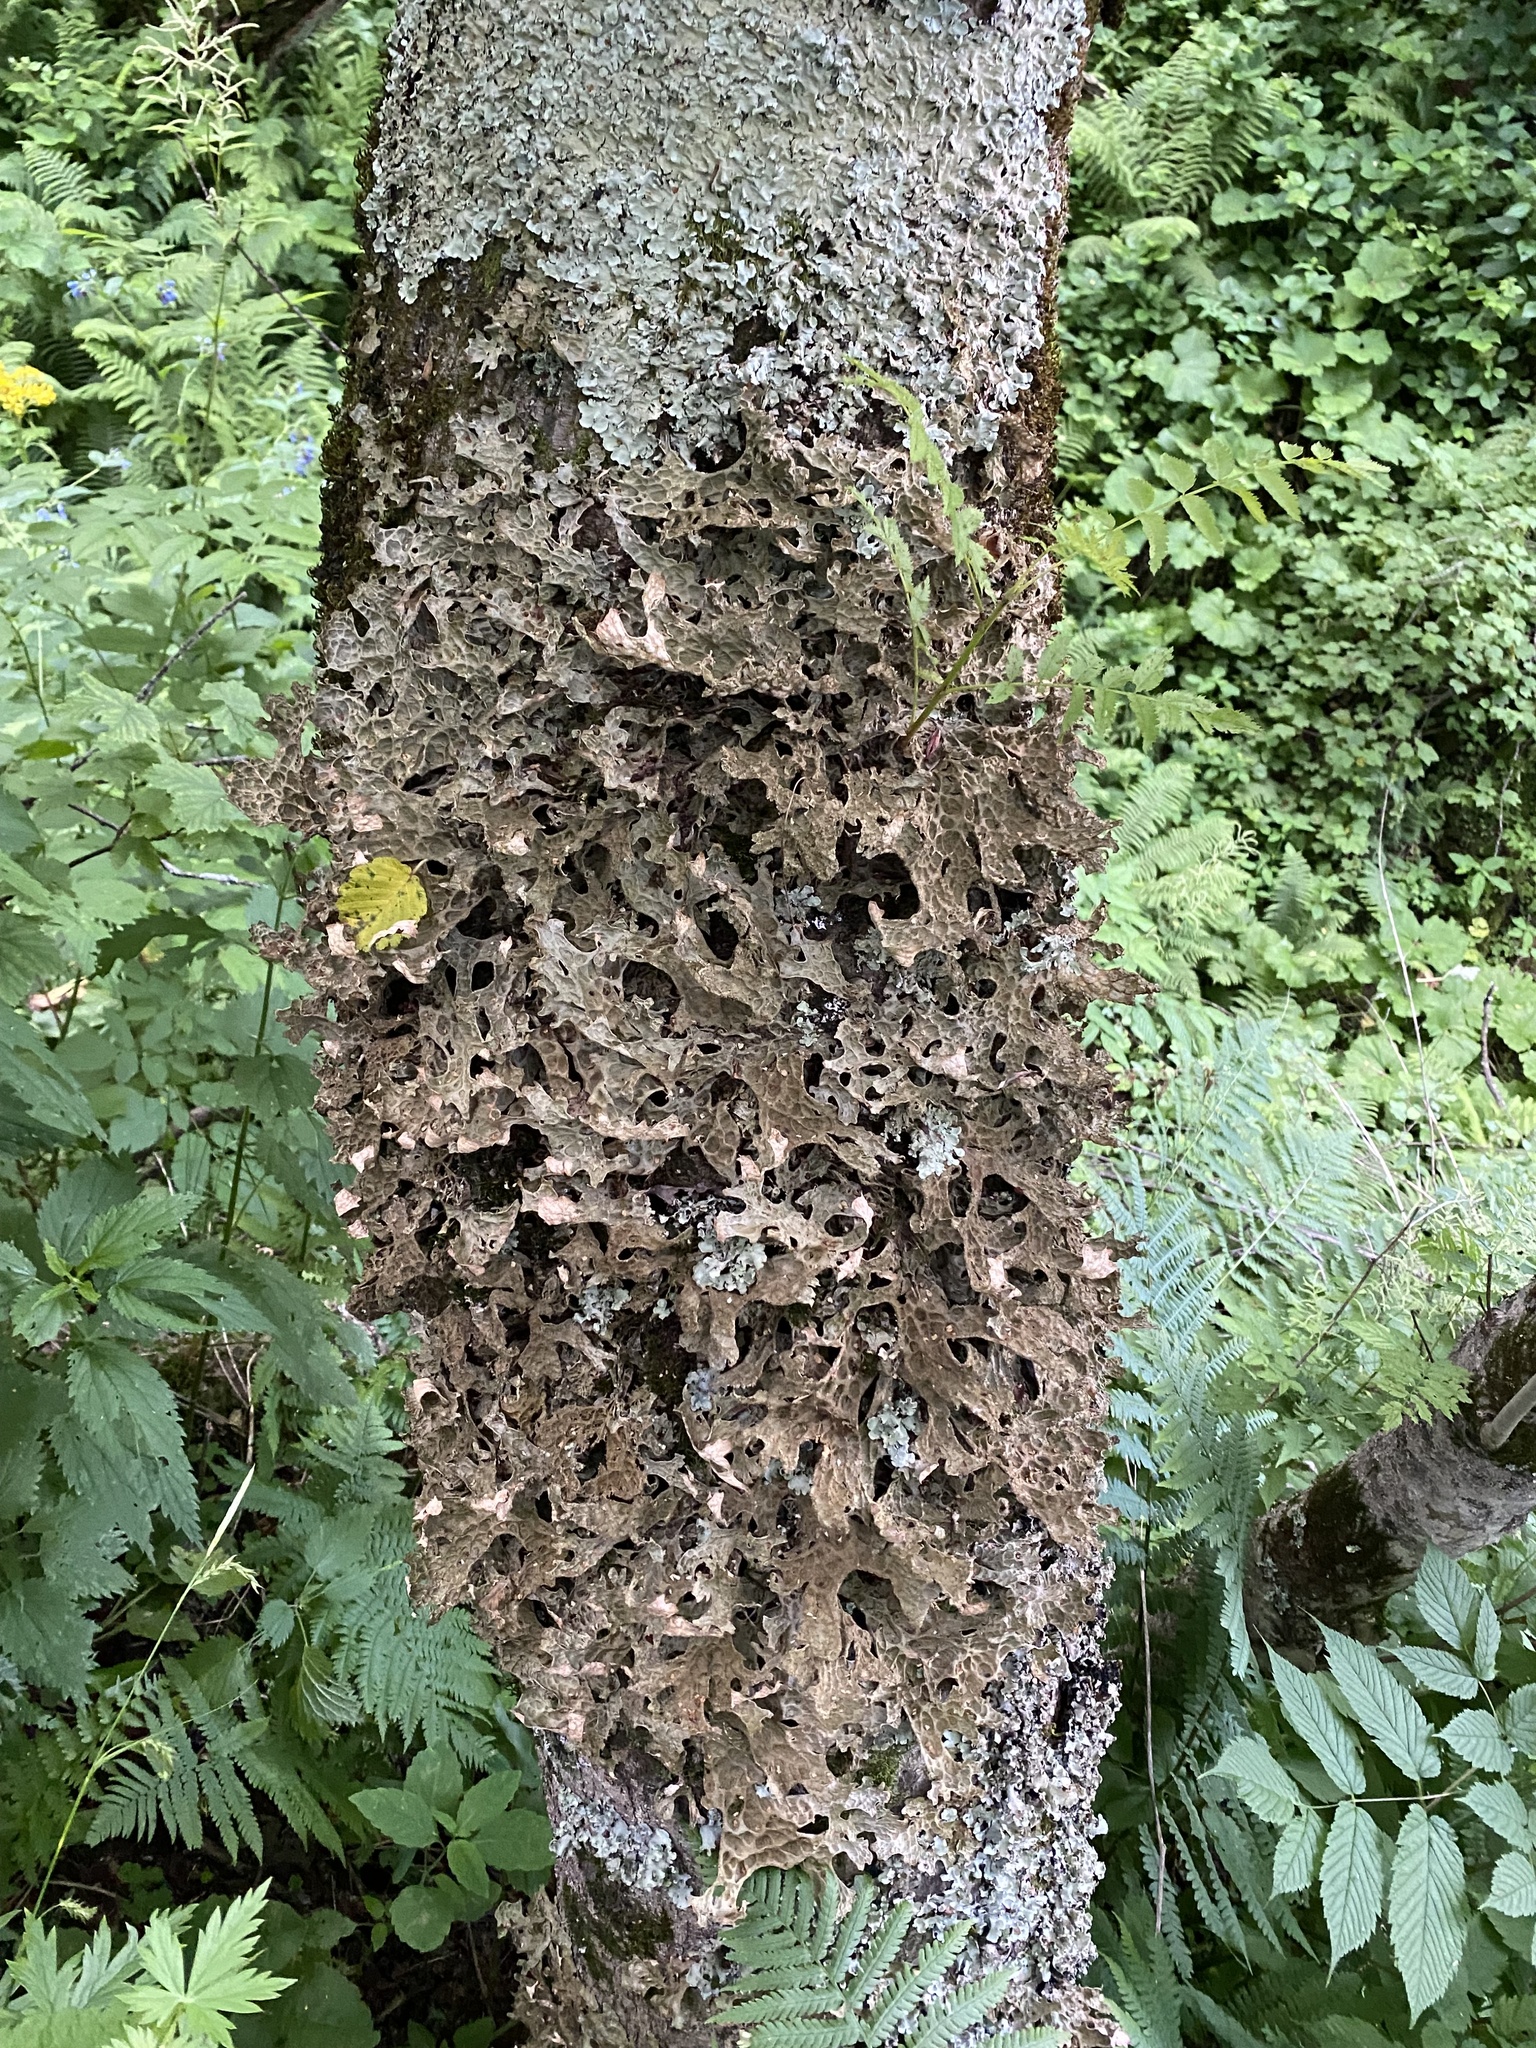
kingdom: Fungi
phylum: Ascomycota
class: Lecanoromycetes
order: Peltigerales
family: Lobariaceae
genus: Lobaria
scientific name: Lobaria pulmonaria
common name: Lungwort
